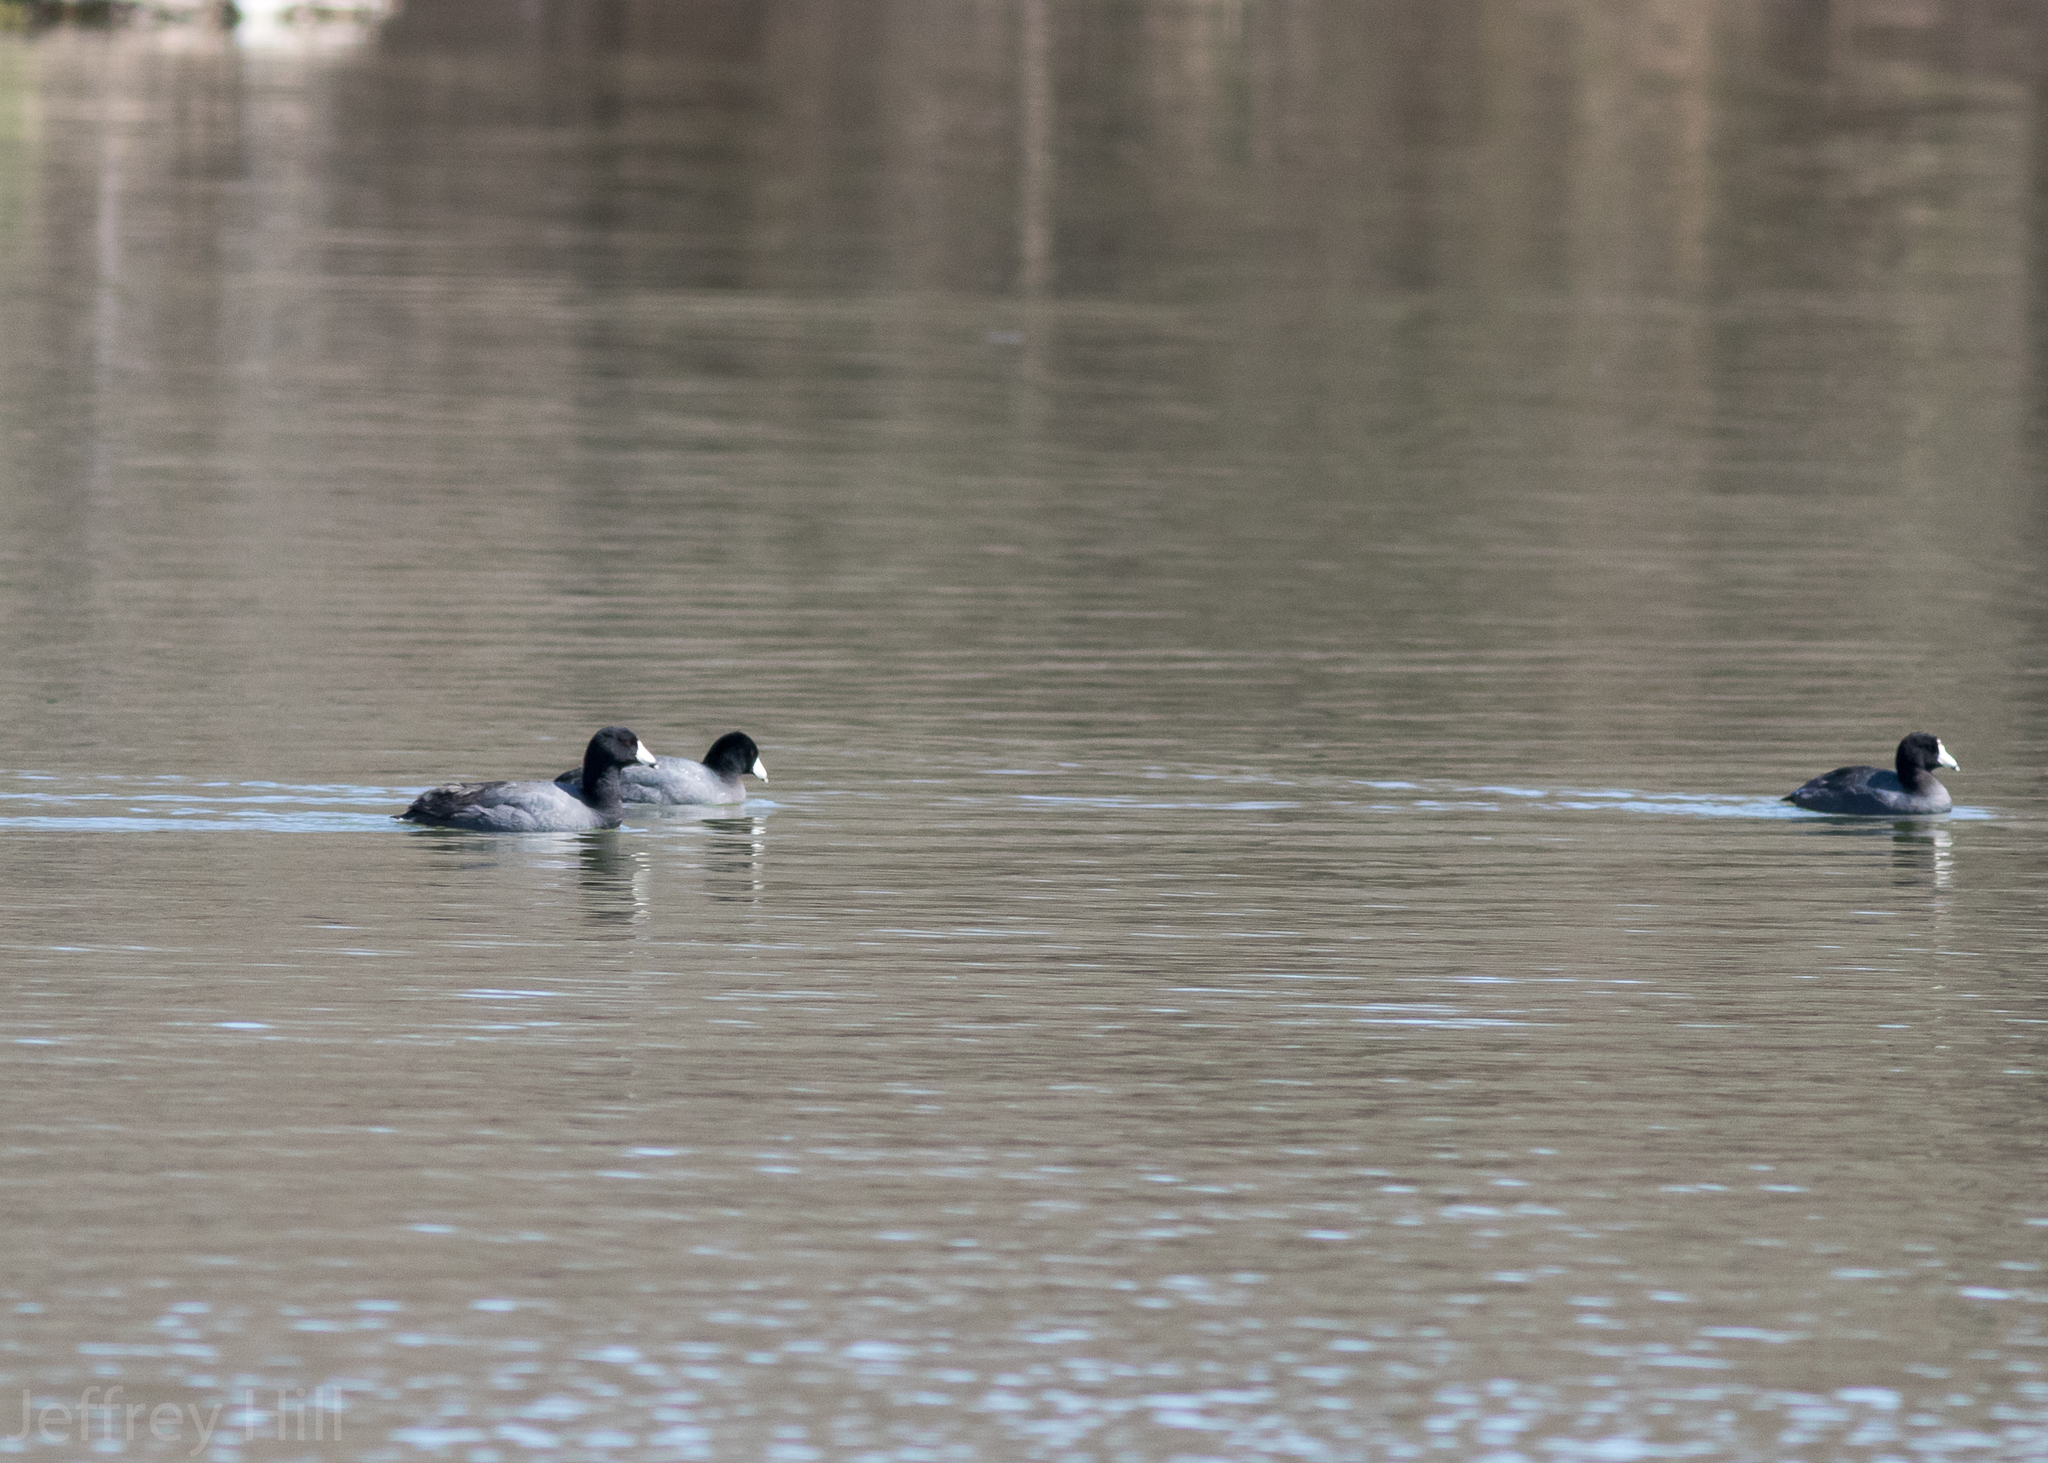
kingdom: Animalia
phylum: Chordata
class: Aves
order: Gruiformes
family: Rallidae
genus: Fulica
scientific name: Fulica americana
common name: American coot
